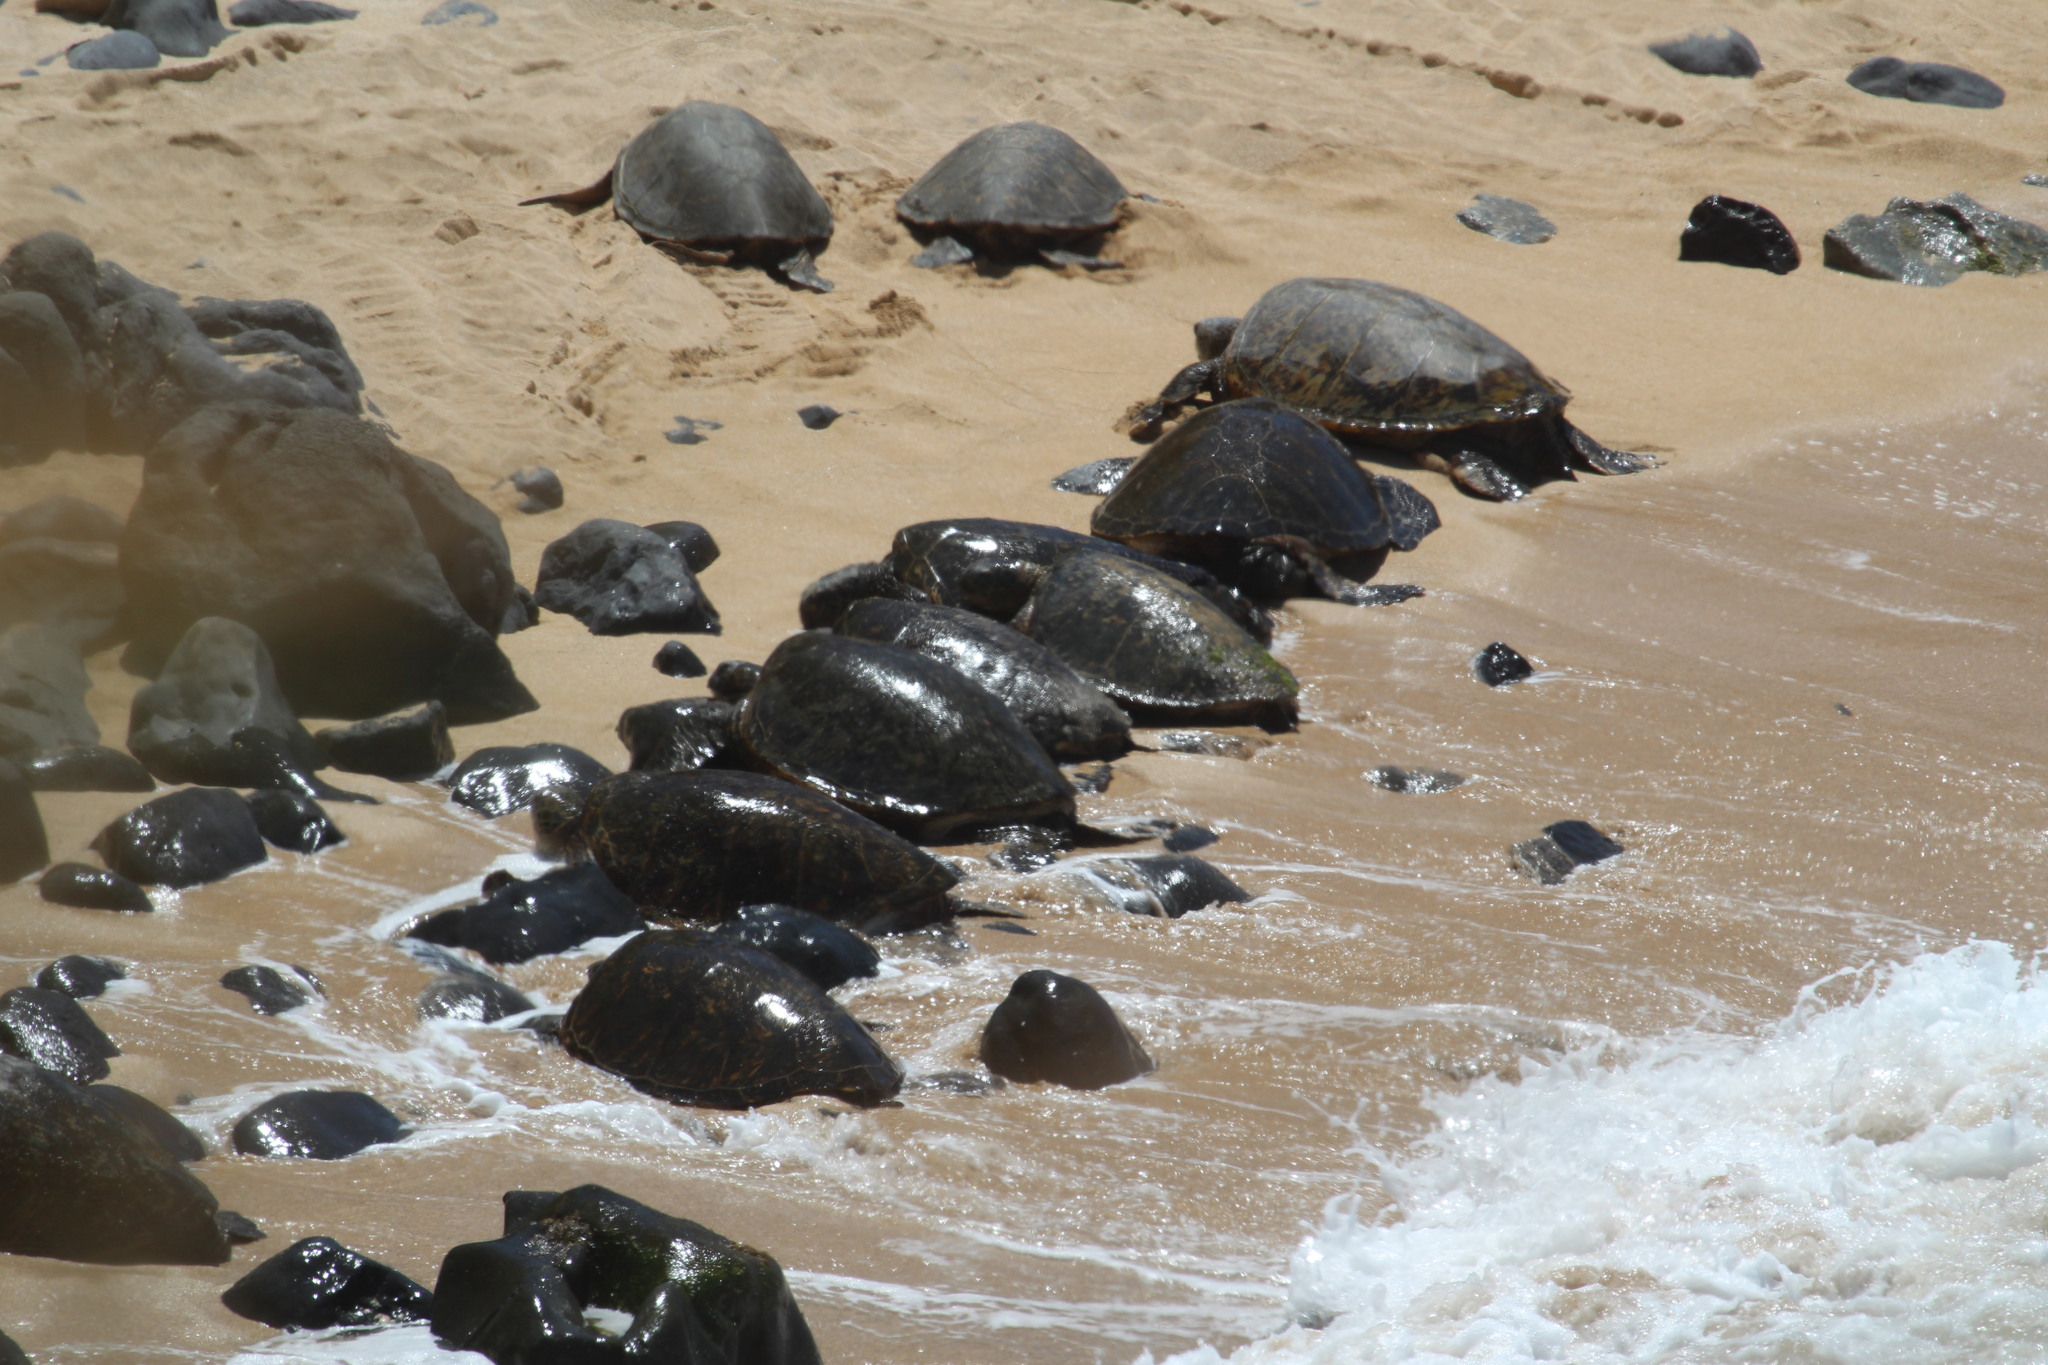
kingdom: Animalia
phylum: Chordata
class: Testudines
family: Cheloniidae
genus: Chelonia
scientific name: Chelonia mydas
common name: Green turtle
